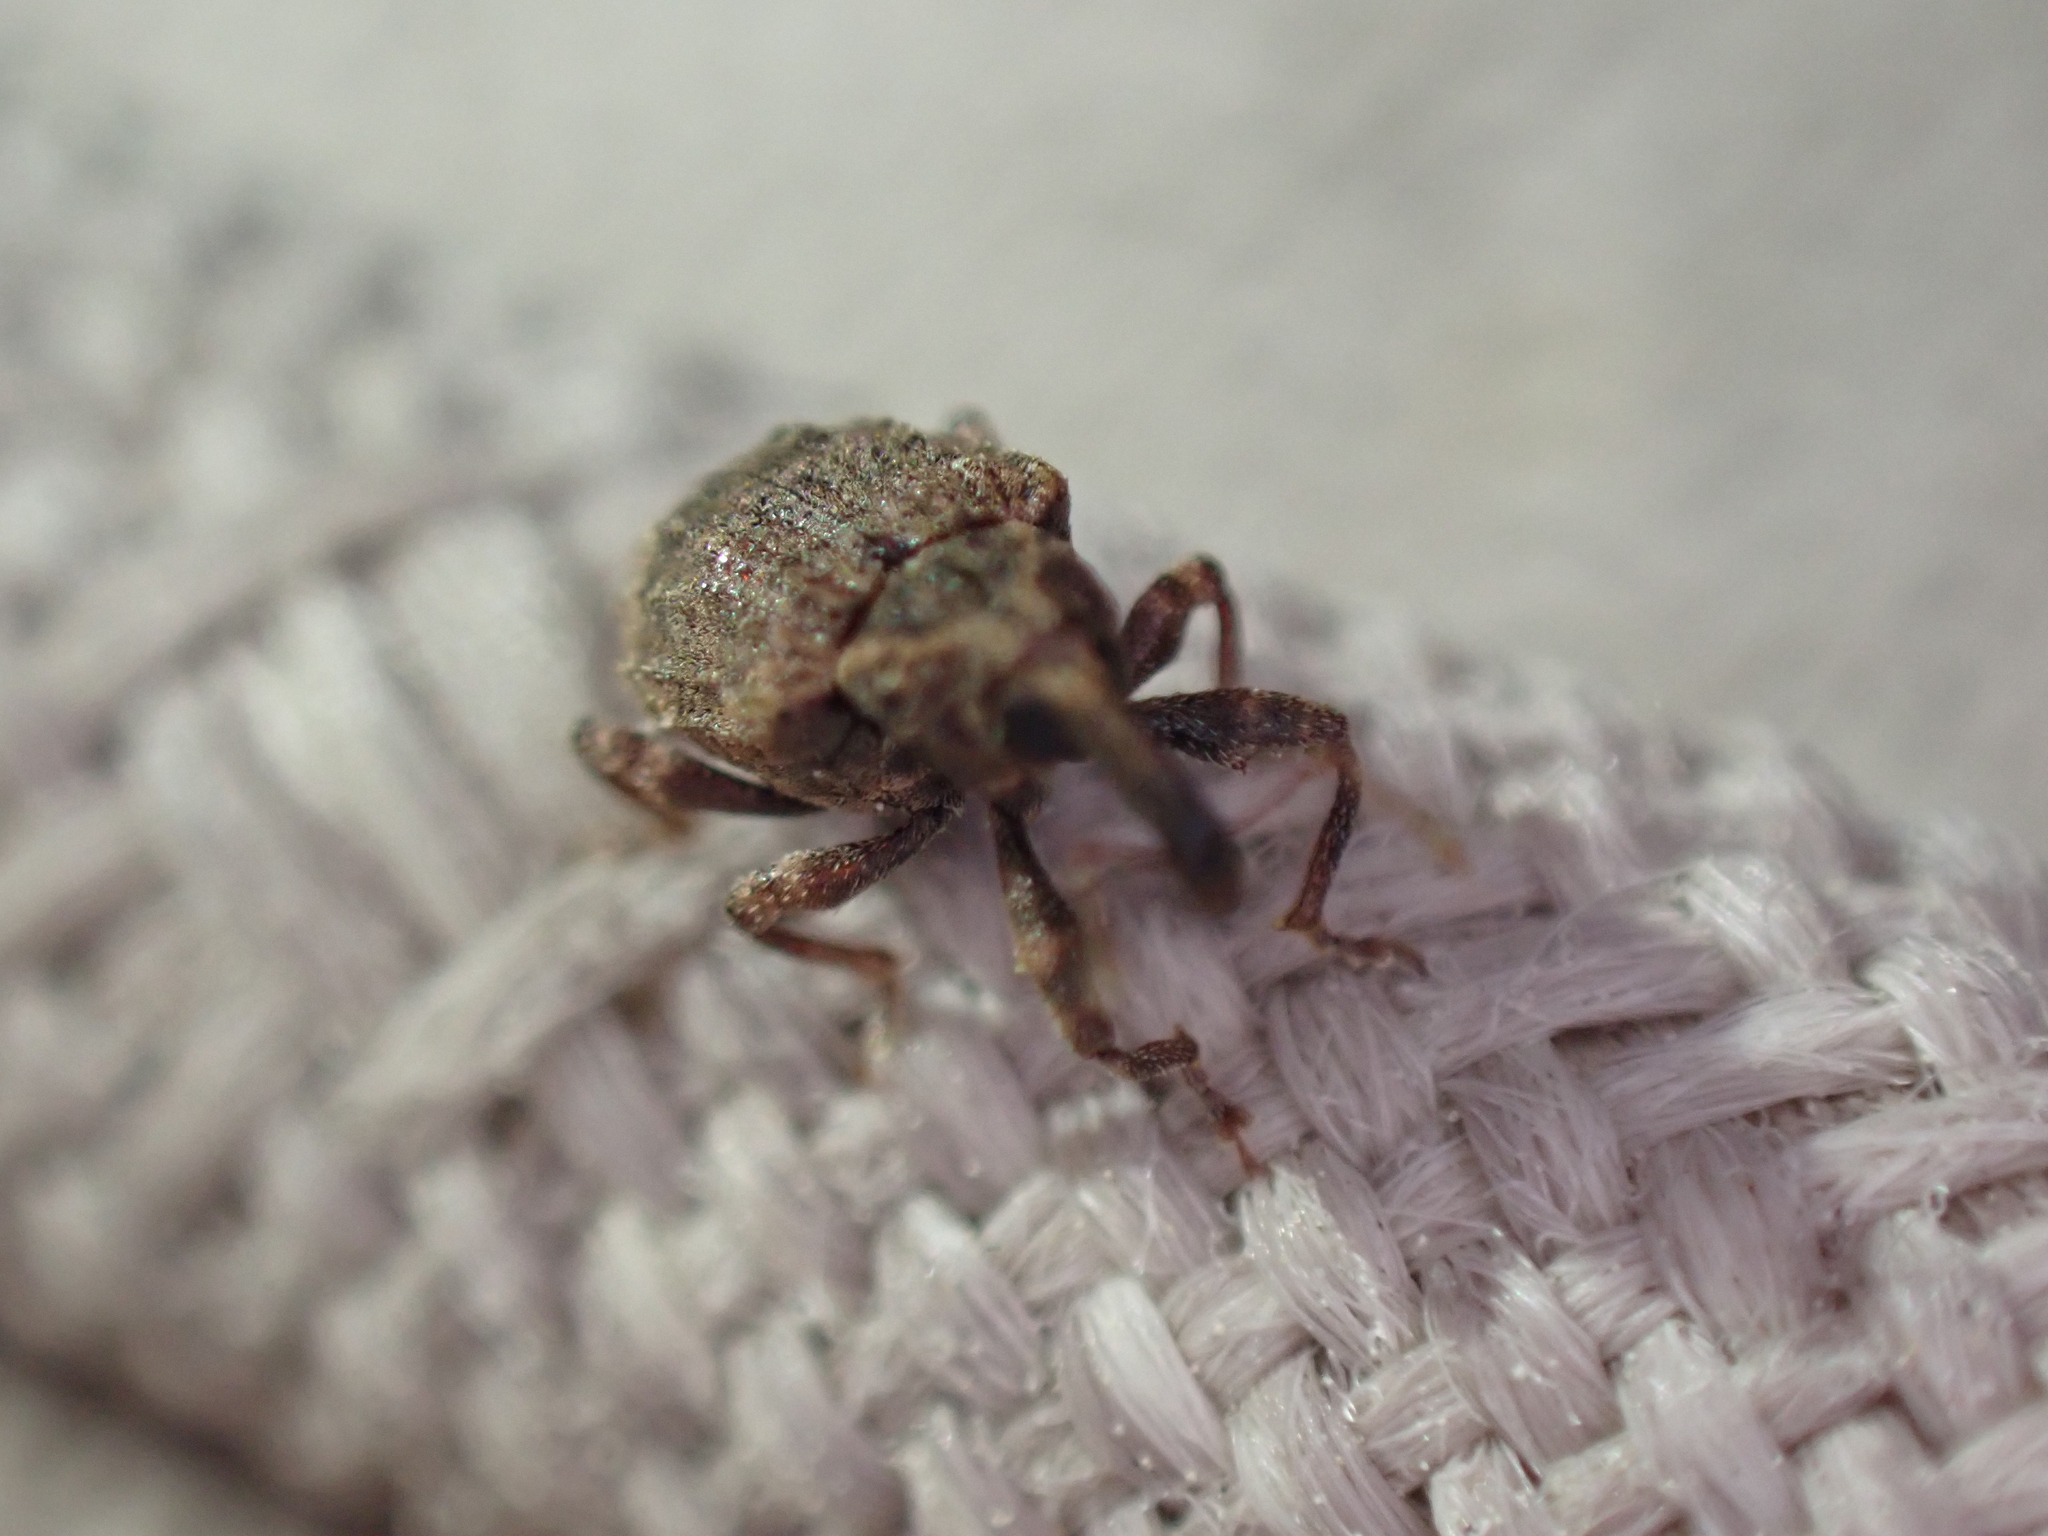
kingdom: Animalia
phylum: Arthropoda
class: Insecta
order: Coleoptera
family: Curculionidae
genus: Conotrachelus
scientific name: Conotrachelus seniculus
